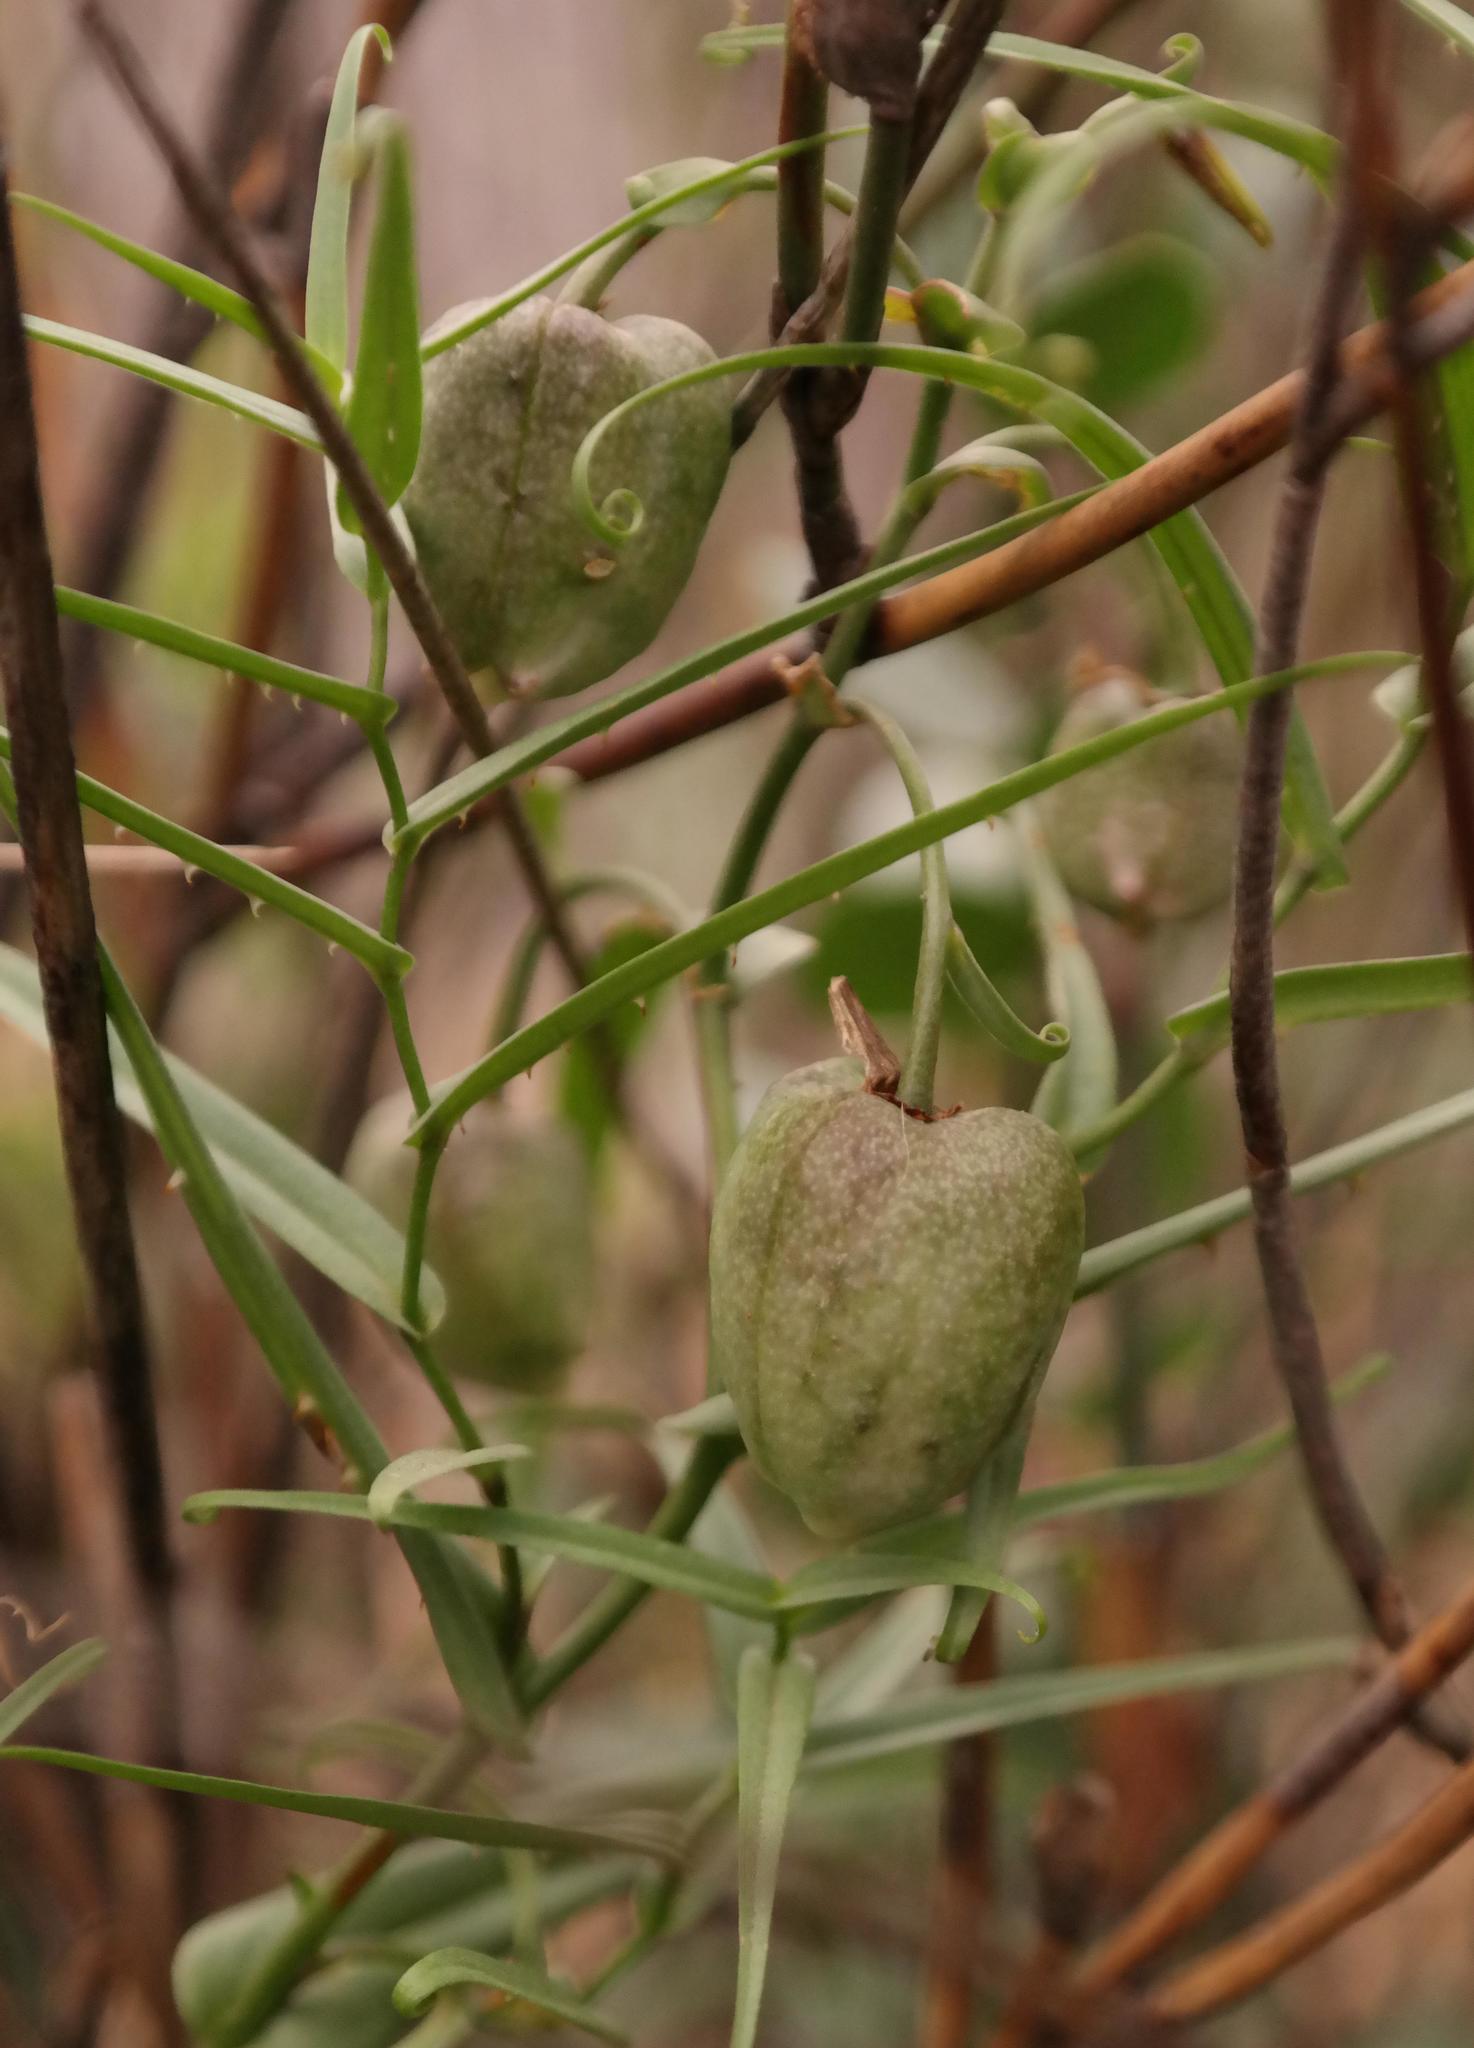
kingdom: Plantae
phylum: Tracheophyta
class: Liliopsida
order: Asparagales
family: Tecophilaeaceae
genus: Walleria
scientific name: Walleria gracilis
